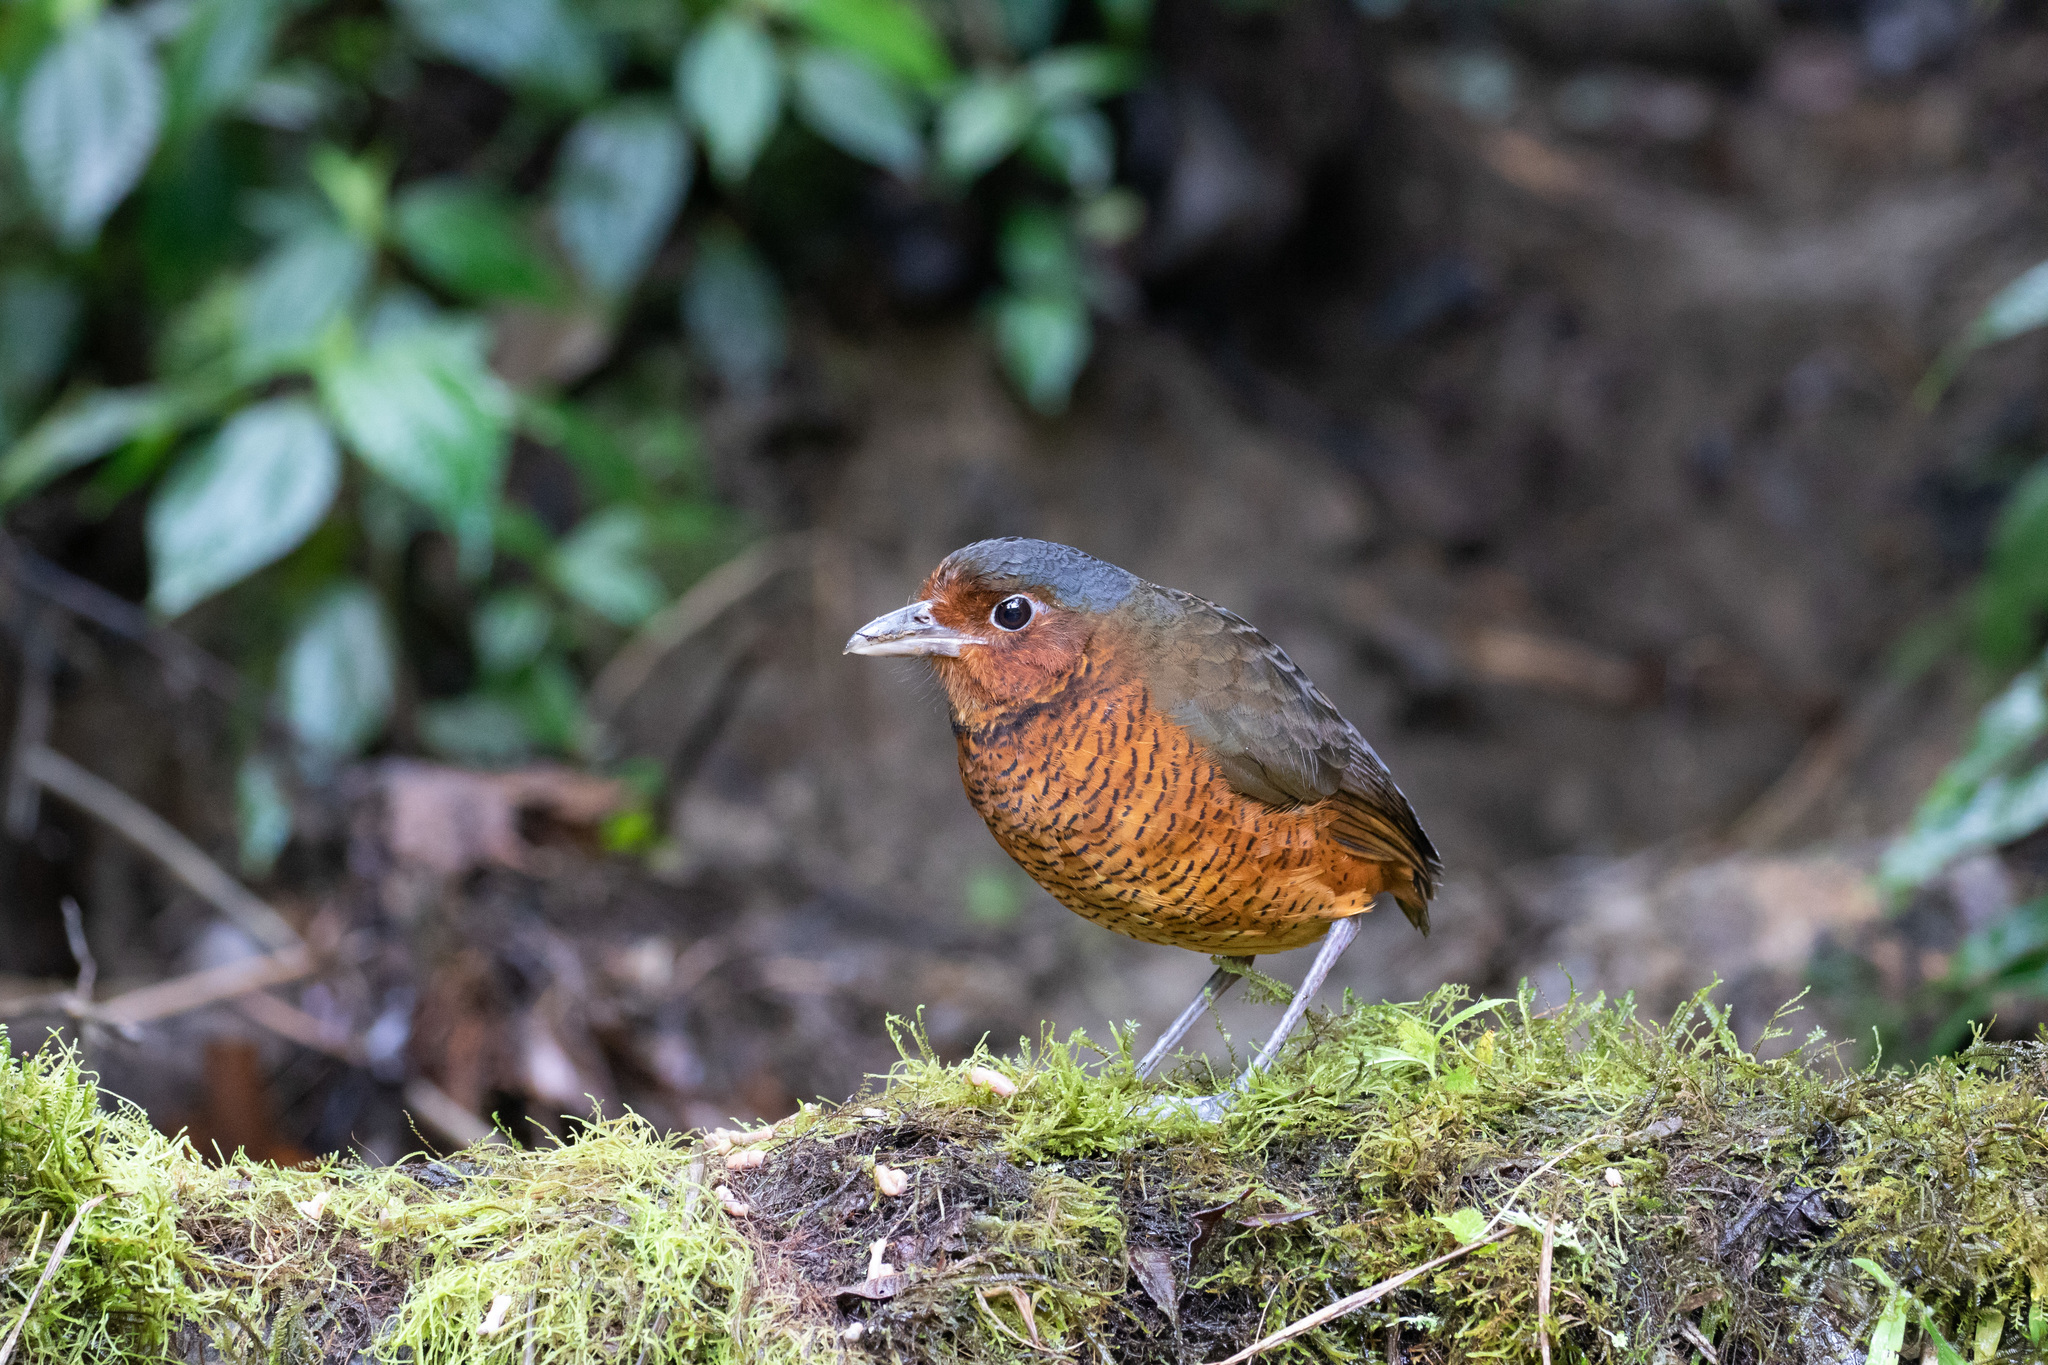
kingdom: Animalia
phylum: Chordata
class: Aves
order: Passeriformes
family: Grallariidae
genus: Grallaria
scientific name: Grallaria gigantea
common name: Giant antpitta
